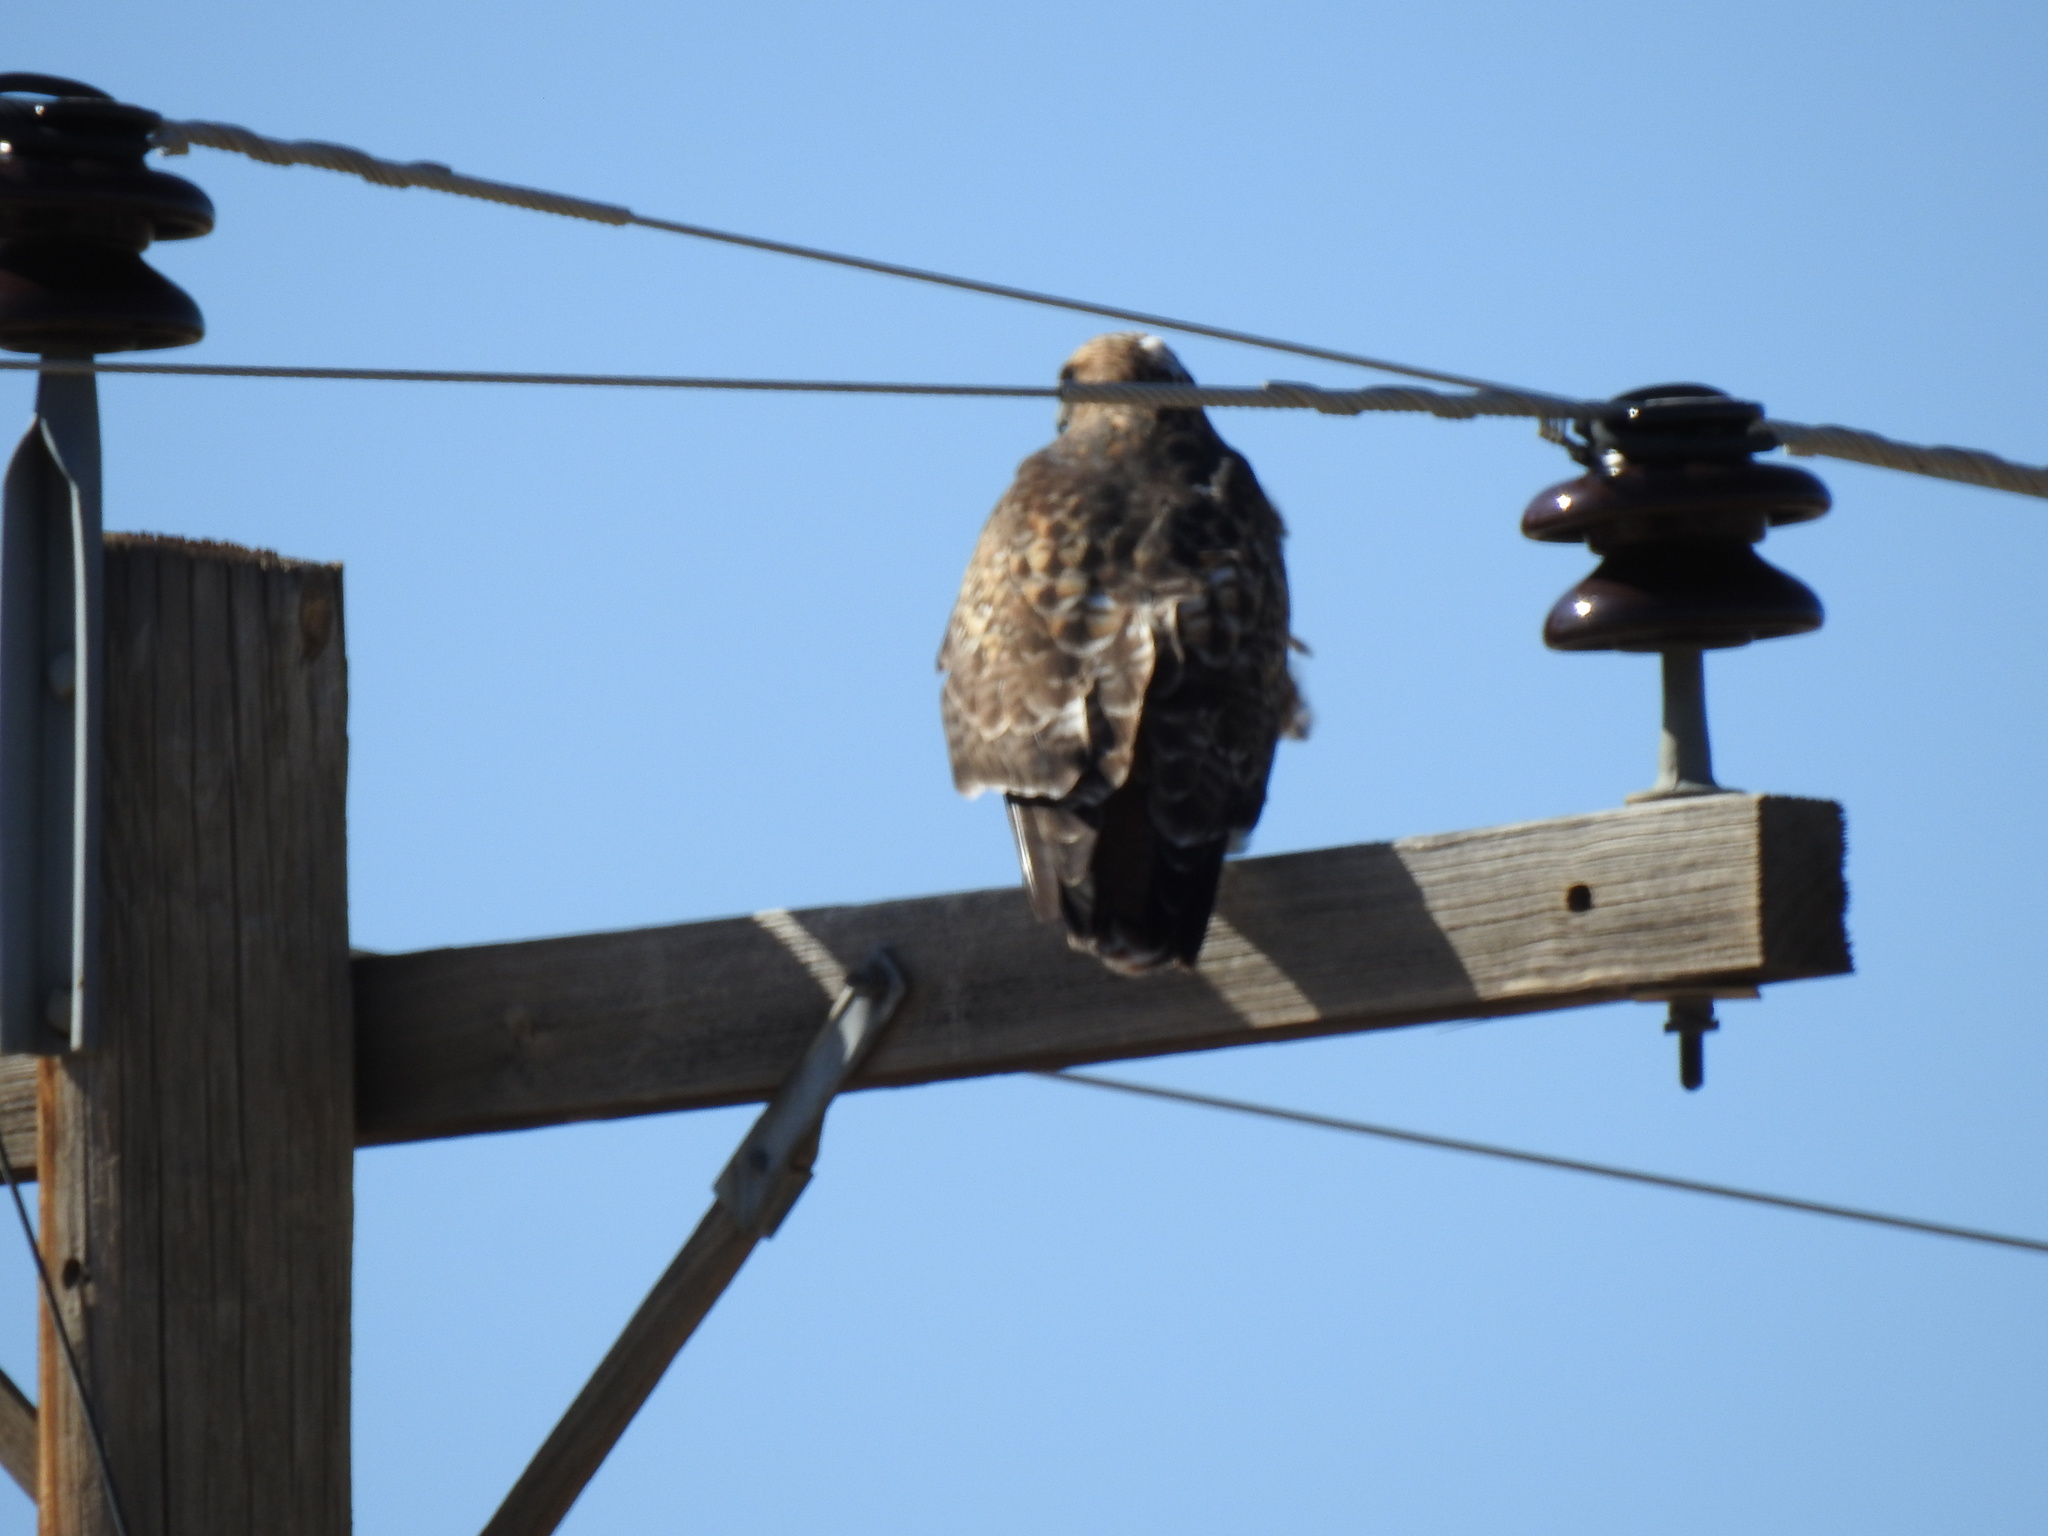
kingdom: Animalia
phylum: Chordata
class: Aves
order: Accipitriformes
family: Accipitridae
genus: Buteo
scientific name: Buteo jamaicensis
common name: Red-tailed hawk
